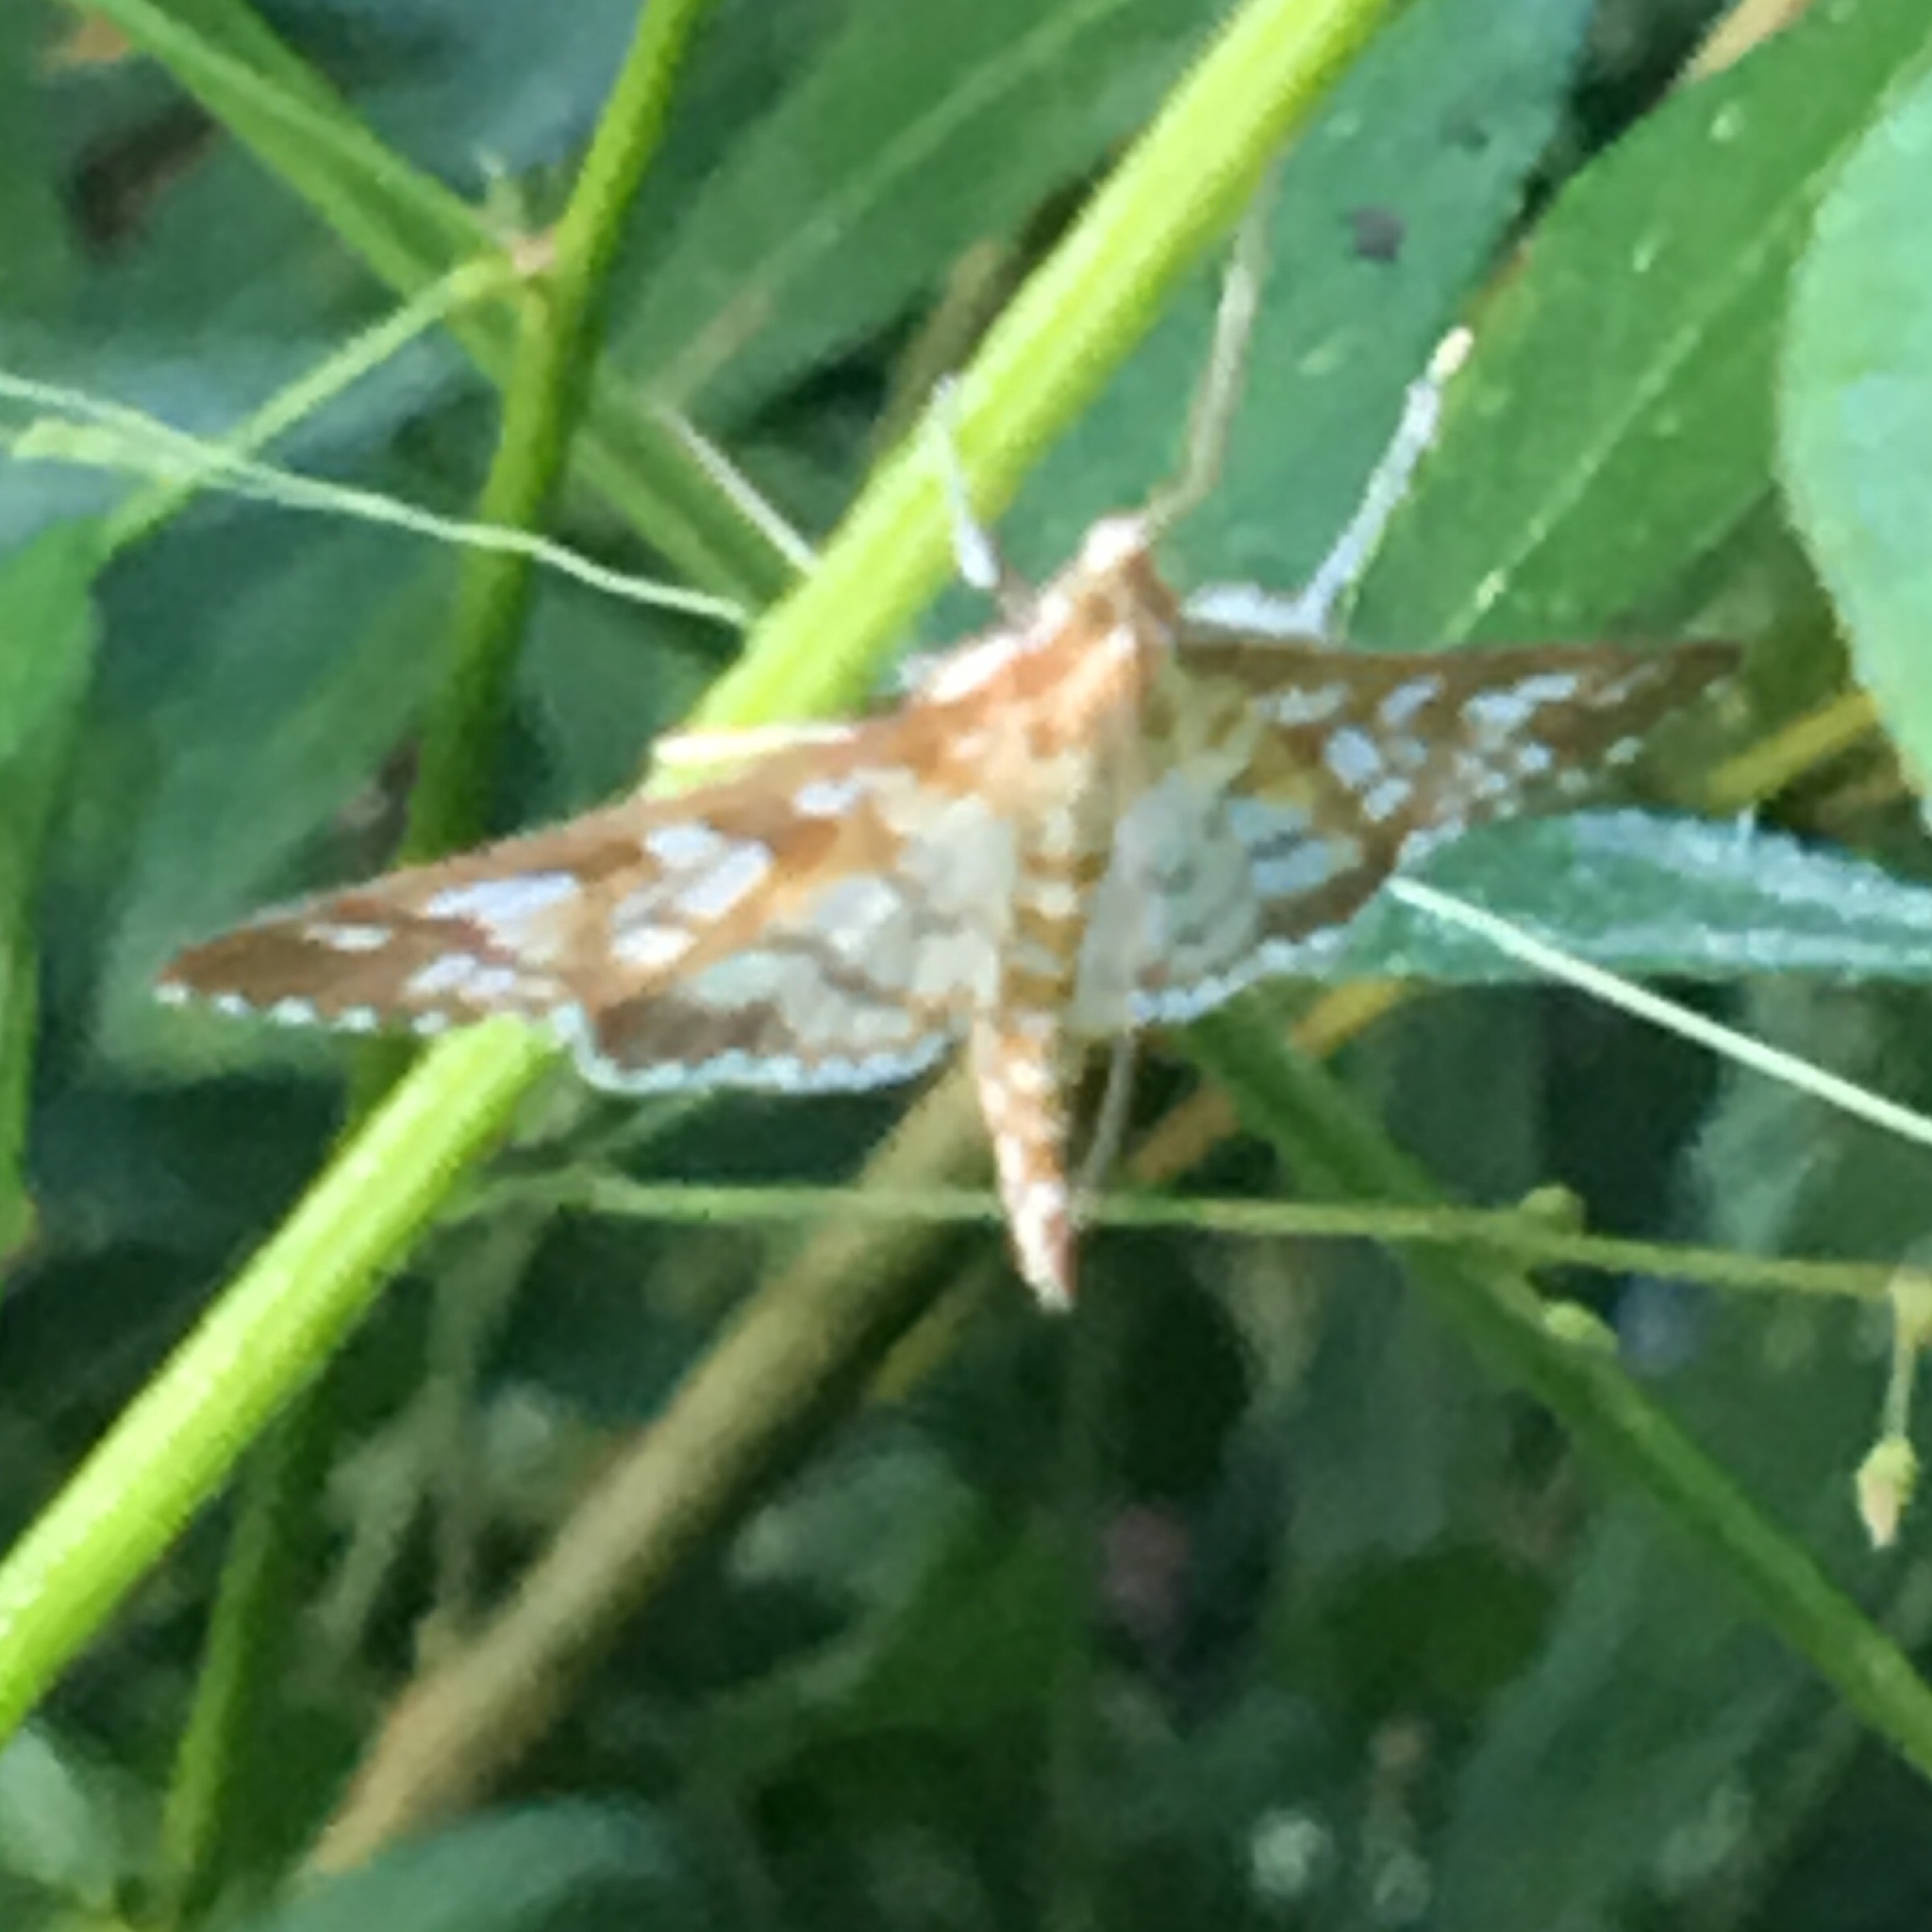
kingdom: Animalia
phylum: Arthropoda
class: Insecta
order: Lepidoptera
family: Crambidae
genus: Epipagis
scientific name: Epipagis fenestralis
